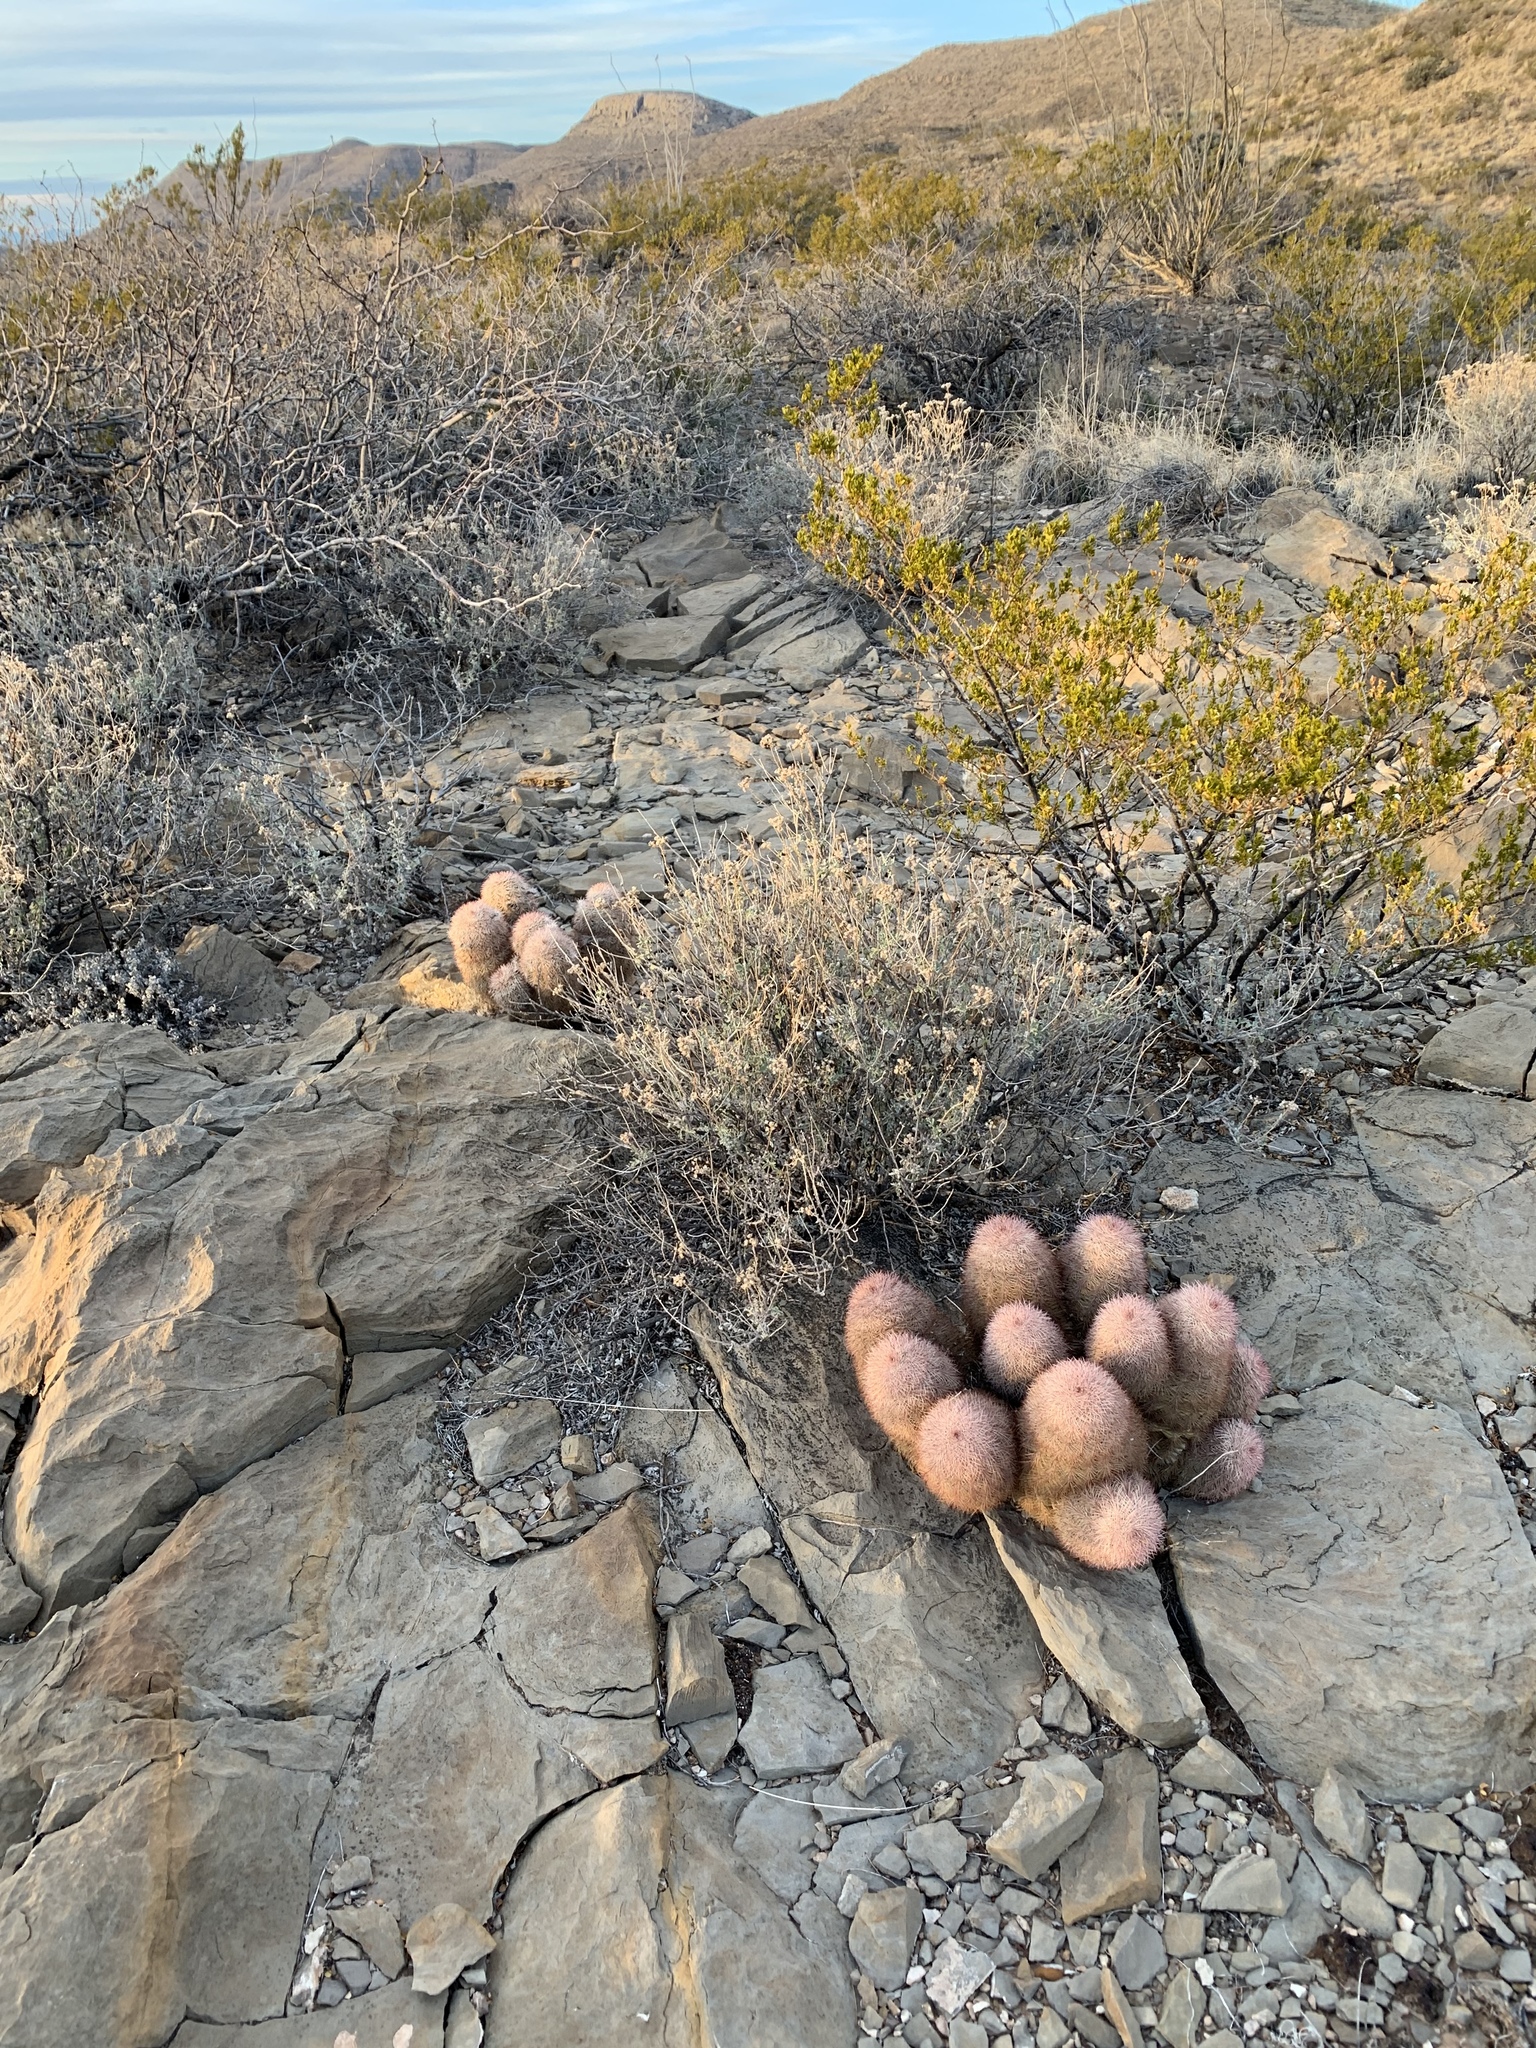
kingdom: Plantae
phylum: Tracheophyta
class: Magnoliopsida
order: Caryophyllales
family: Cactaceae
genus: Echinocereus
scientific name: Echinocereus dasyacanthus
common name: Spiny hedgehog cactus
